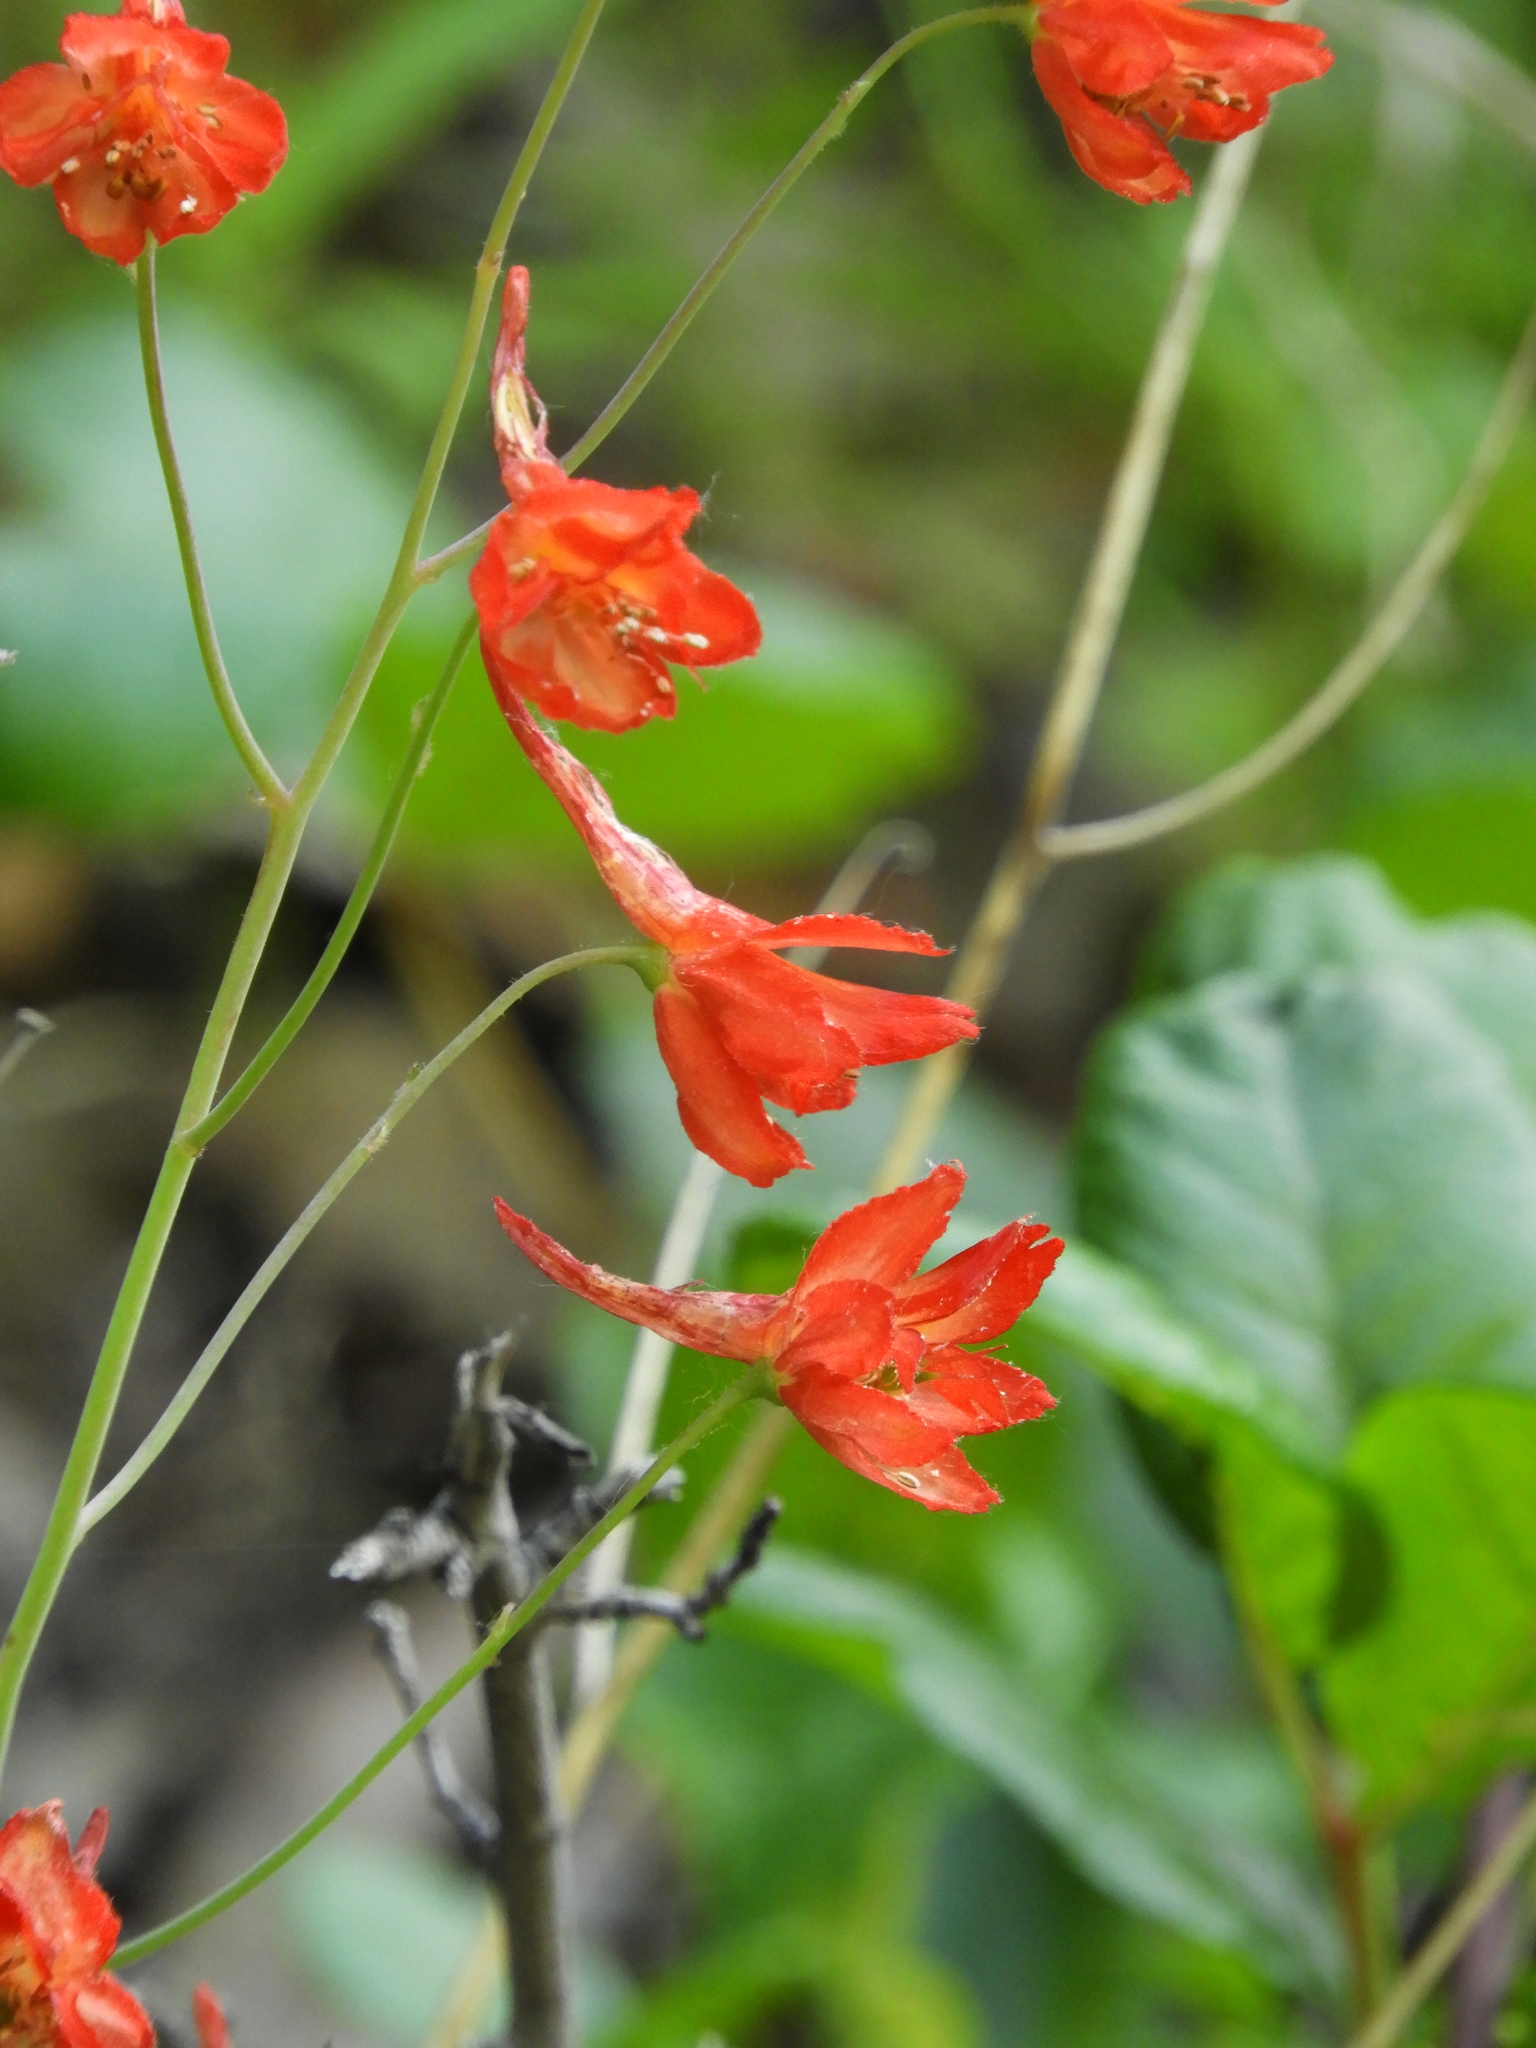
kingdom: Plantae
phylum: Tracheophyta
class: Magnoliopsida
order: Ranunculales
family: Ranunculaceae
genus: Delphinium
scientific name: Delphinium nudicaule
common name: Red larkspur
